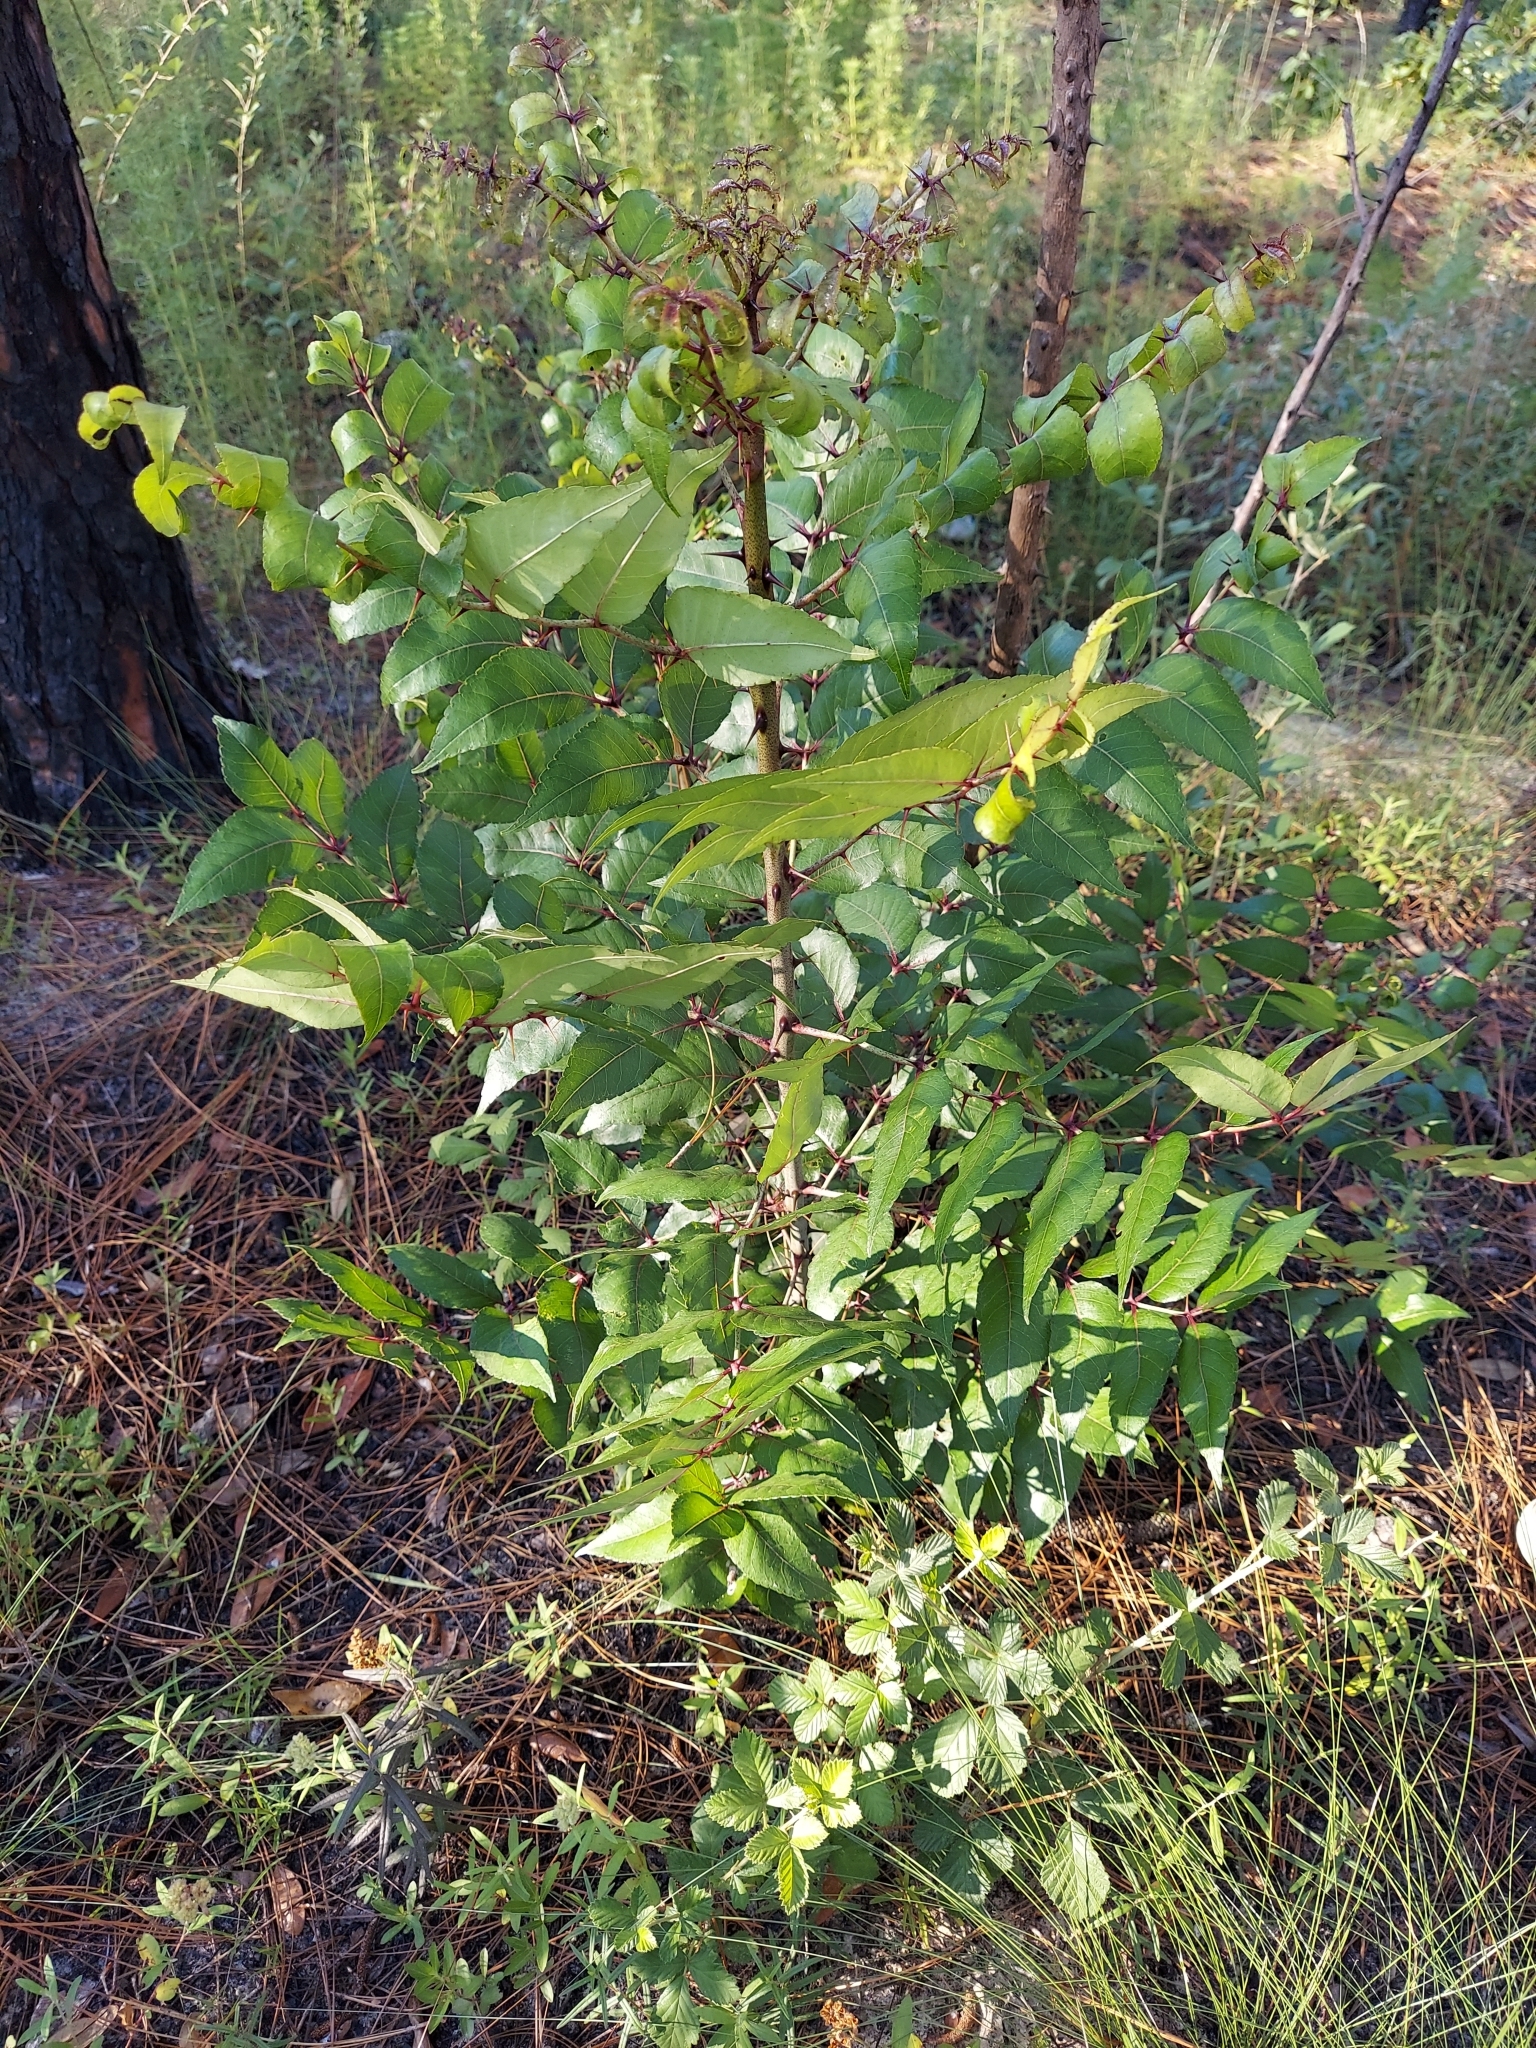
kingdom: Plantae
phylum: Tracheophyta
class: Magnoliopsida
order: Sapindales
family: Rutaceae
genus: Zanthoxylum
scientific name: Zanthoxylum clava-herculis
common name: Hercules'-club
